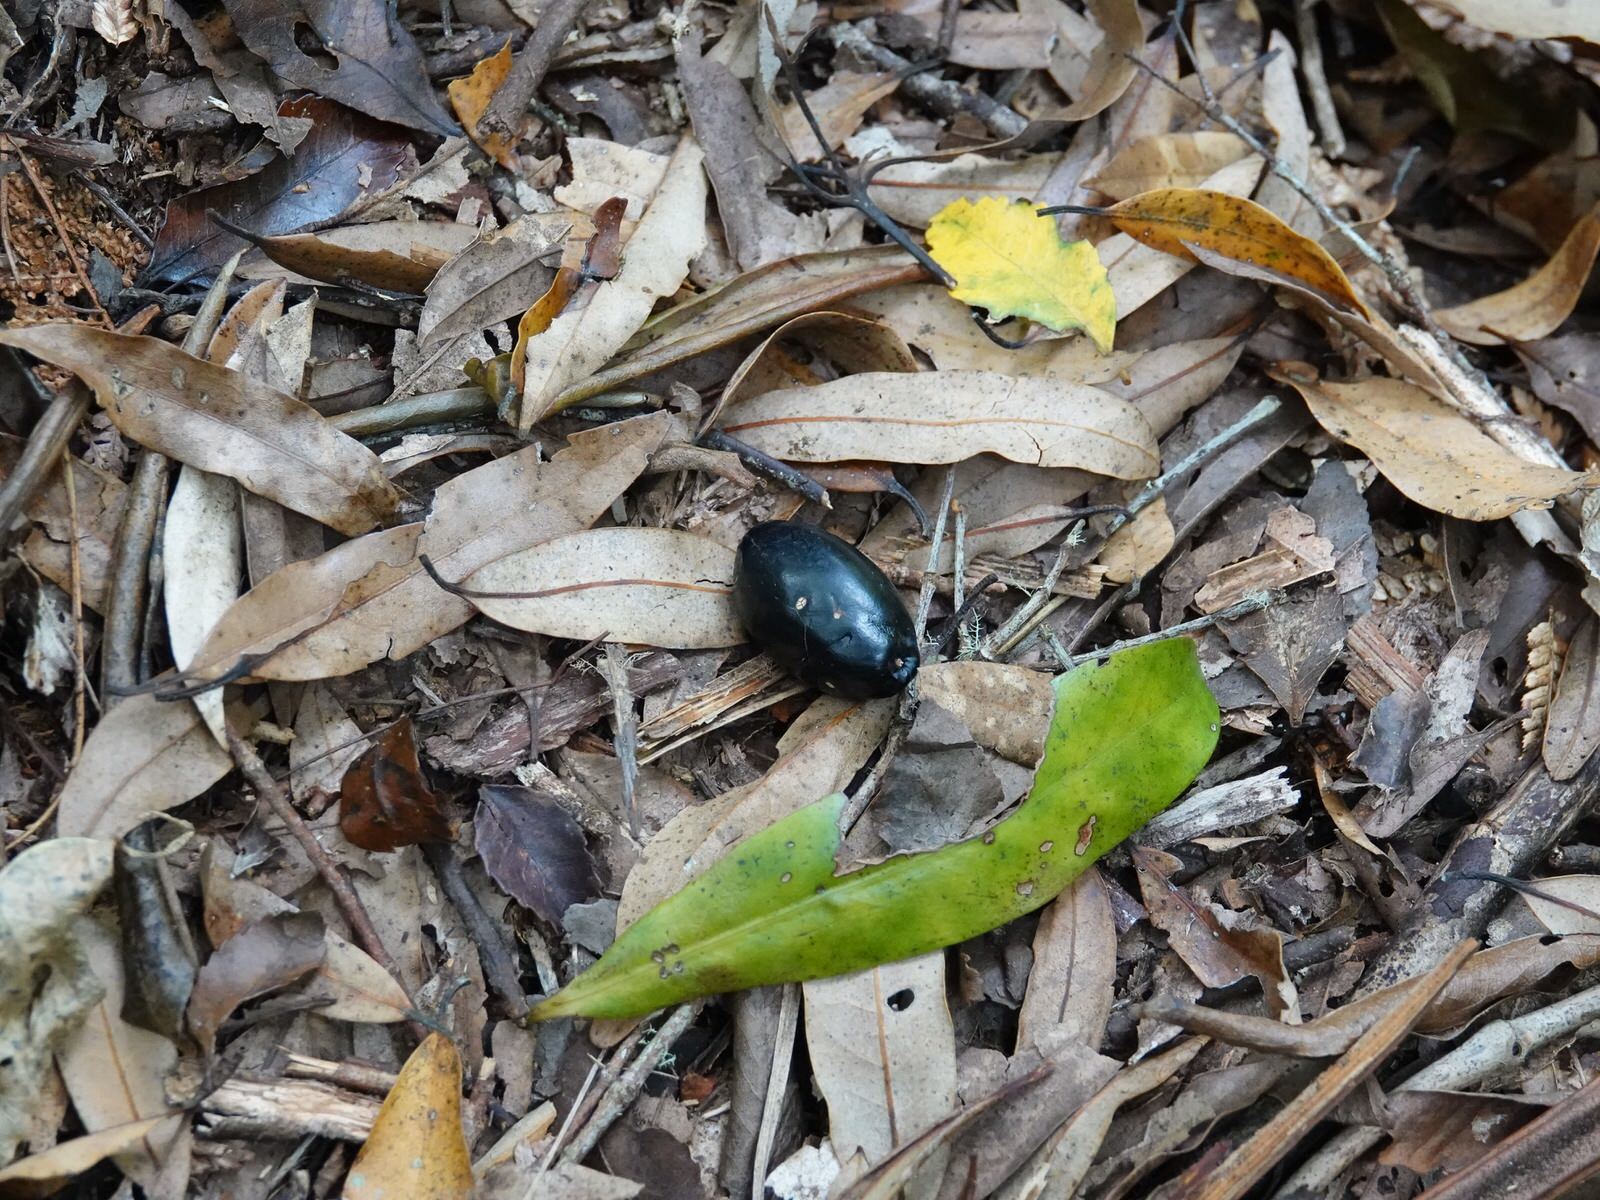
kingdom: Plantae
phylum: Tracheophyta
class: Magnoliopsida
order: Laurales
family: Lauraceae
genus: Beilschmiedia
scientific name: Beilschmiedia tawa
